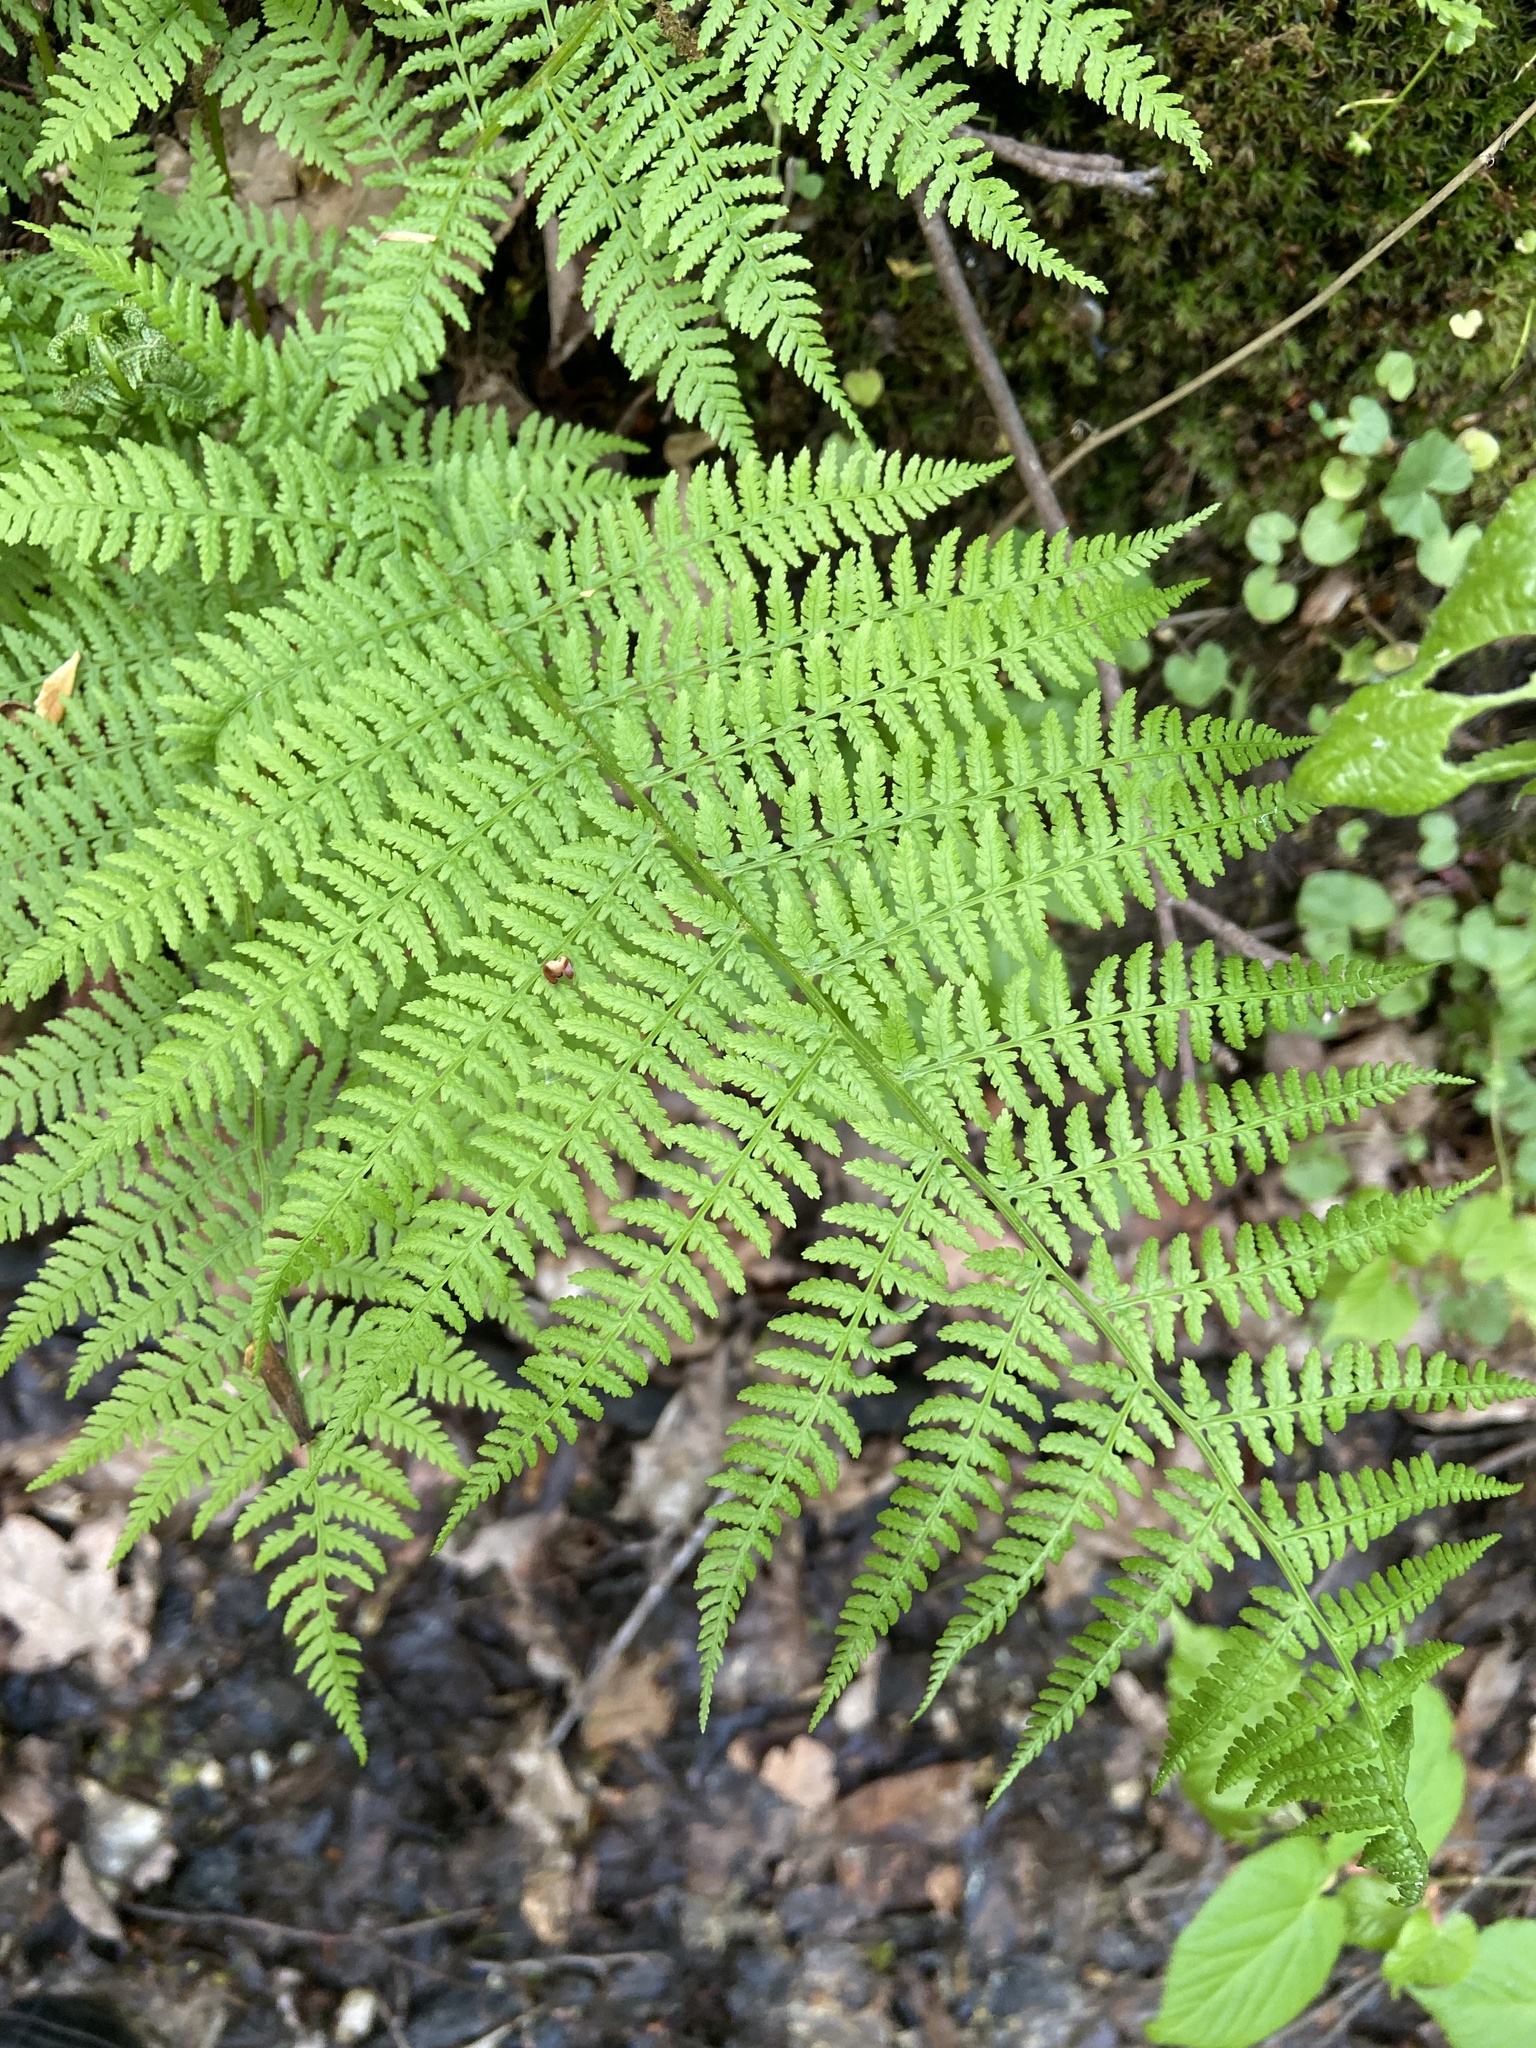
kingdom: Plantae
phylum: Tracheophyta
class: Polypodiopsida
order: Polypodiales
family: Athyriaceae
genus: Athyrium
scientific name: Athyrium filix-femina
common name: Lady fern
